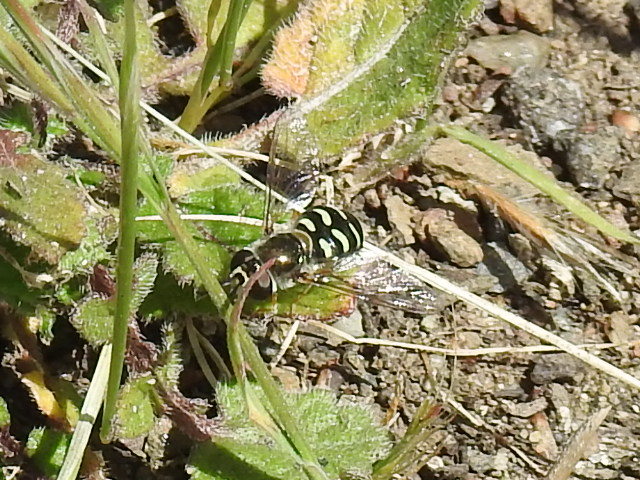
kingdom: Animalia
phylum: Arthropoda
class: Insecta
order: Diptera
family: Syrphidae
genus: Eupeodes
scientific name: Eupeodes volucris
